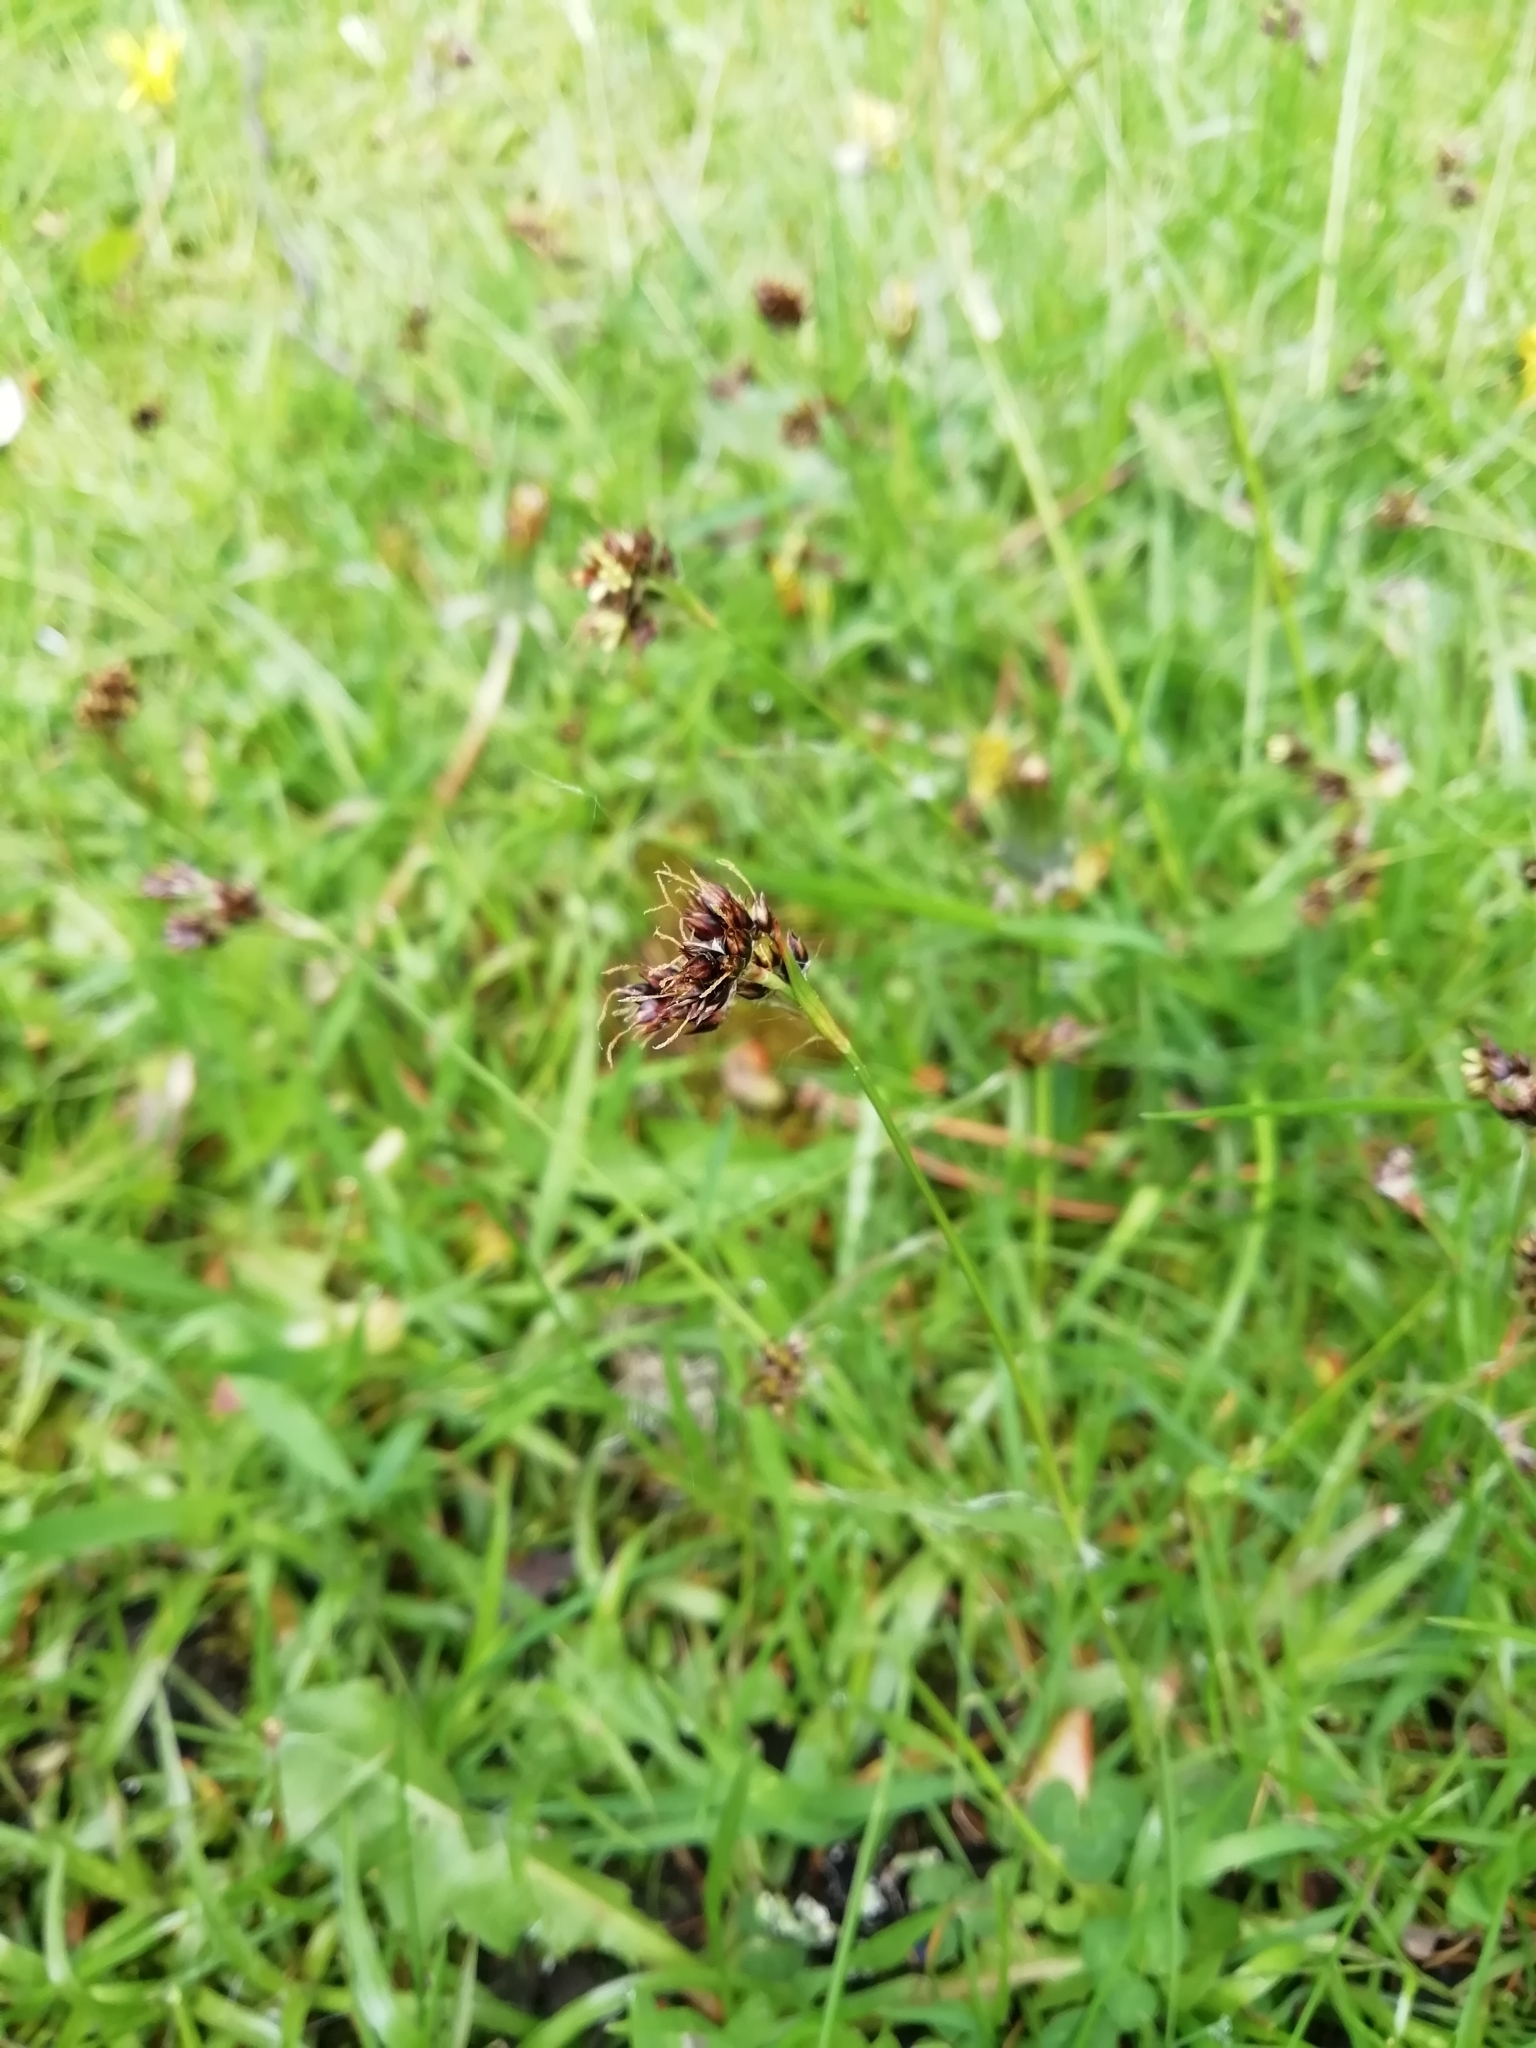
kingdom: Plantae
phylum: Tracheophyta
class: Liliopsida
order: Poales
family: Juncaceae
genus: Luzula
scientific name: Luzula campestris
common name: Field wood-rush
